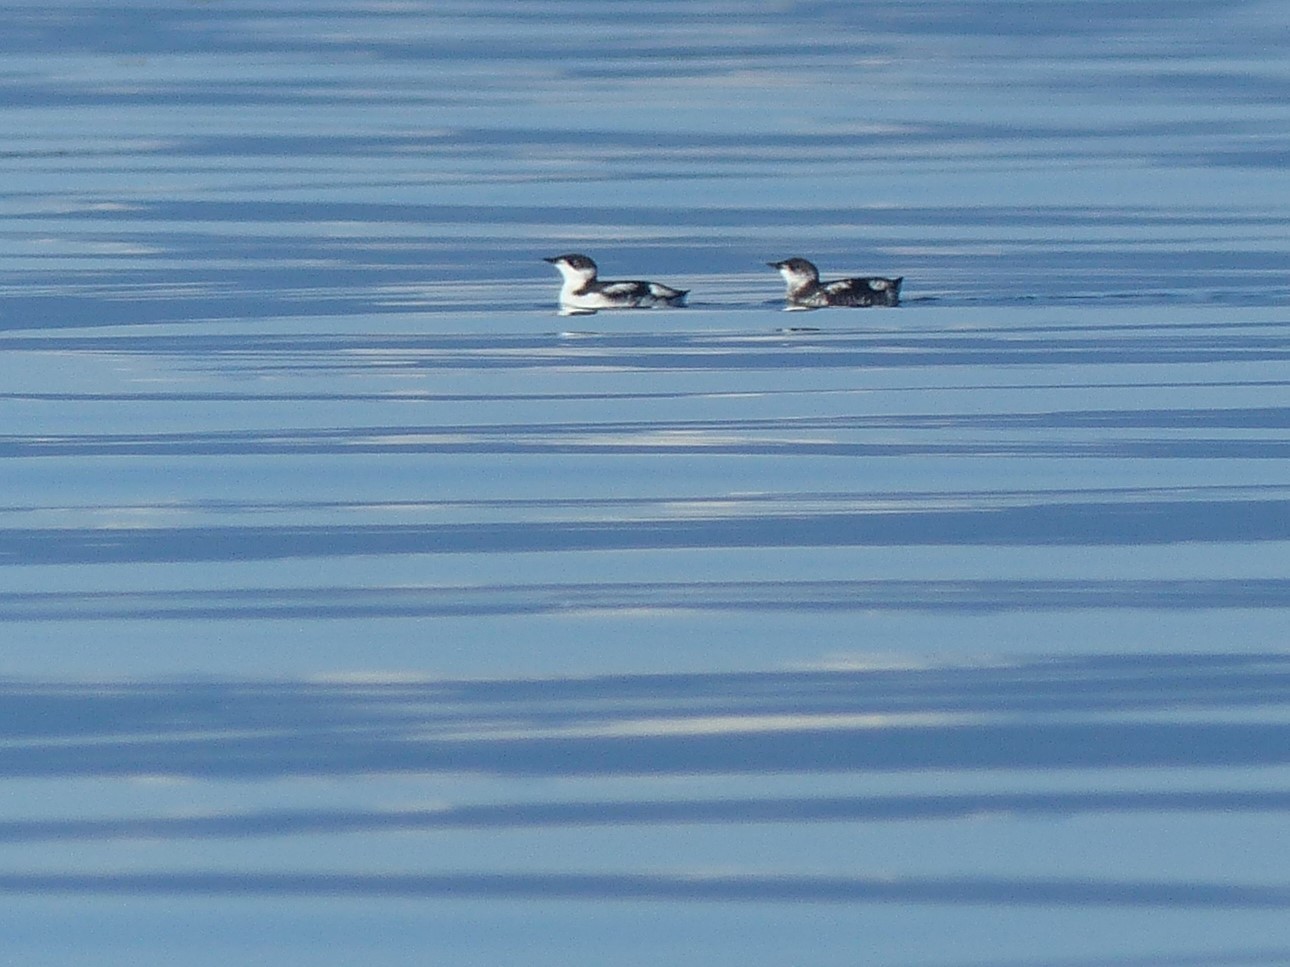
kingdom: Animalia
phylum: Chordata
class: Aves
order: Charadriiformes
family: Alcidae
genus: Brachyramphus
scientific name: Brachyramphus marmoratus
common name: Marbled murrelet
